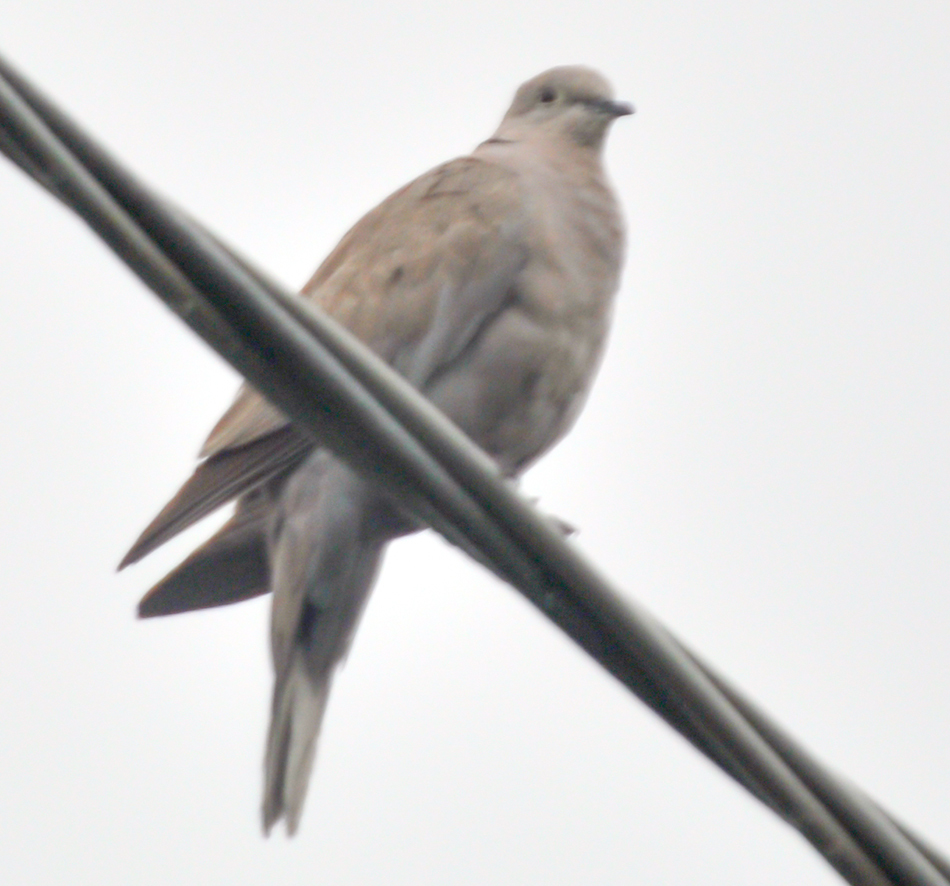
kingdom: Animalia
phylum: Chordata
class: Aves
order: Columbiformes
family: Columbidae
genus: Streptopelia
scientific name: Streptopelia decaocto
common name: Eurasian collared dove
